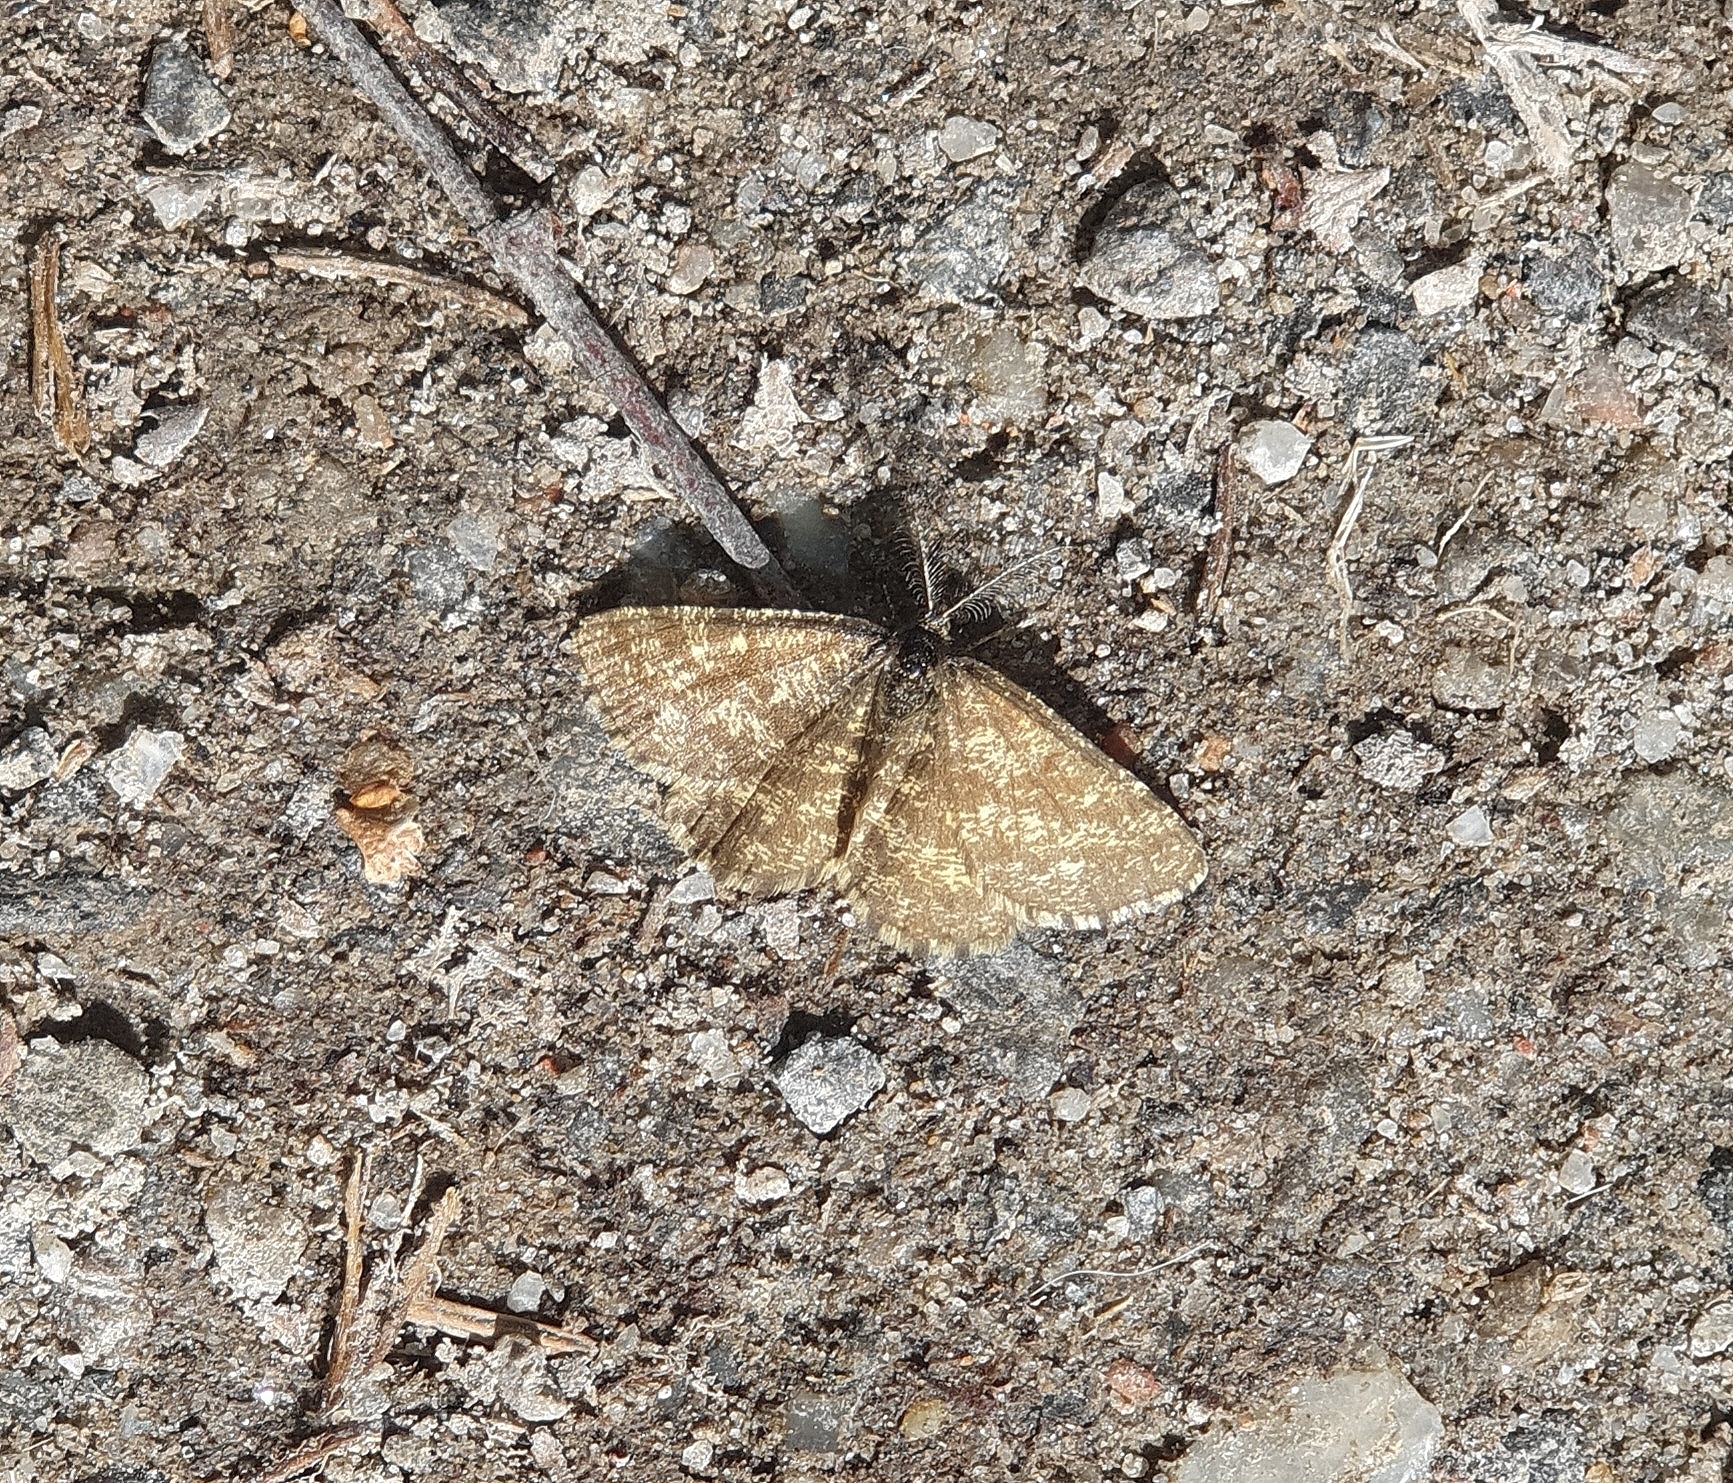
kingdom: Animalia
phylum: Arthropoda
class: Insecta
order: Lepidoptera
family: Geometridae
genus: Ematurga
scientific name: Ematurga atomaria
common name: Common heath
